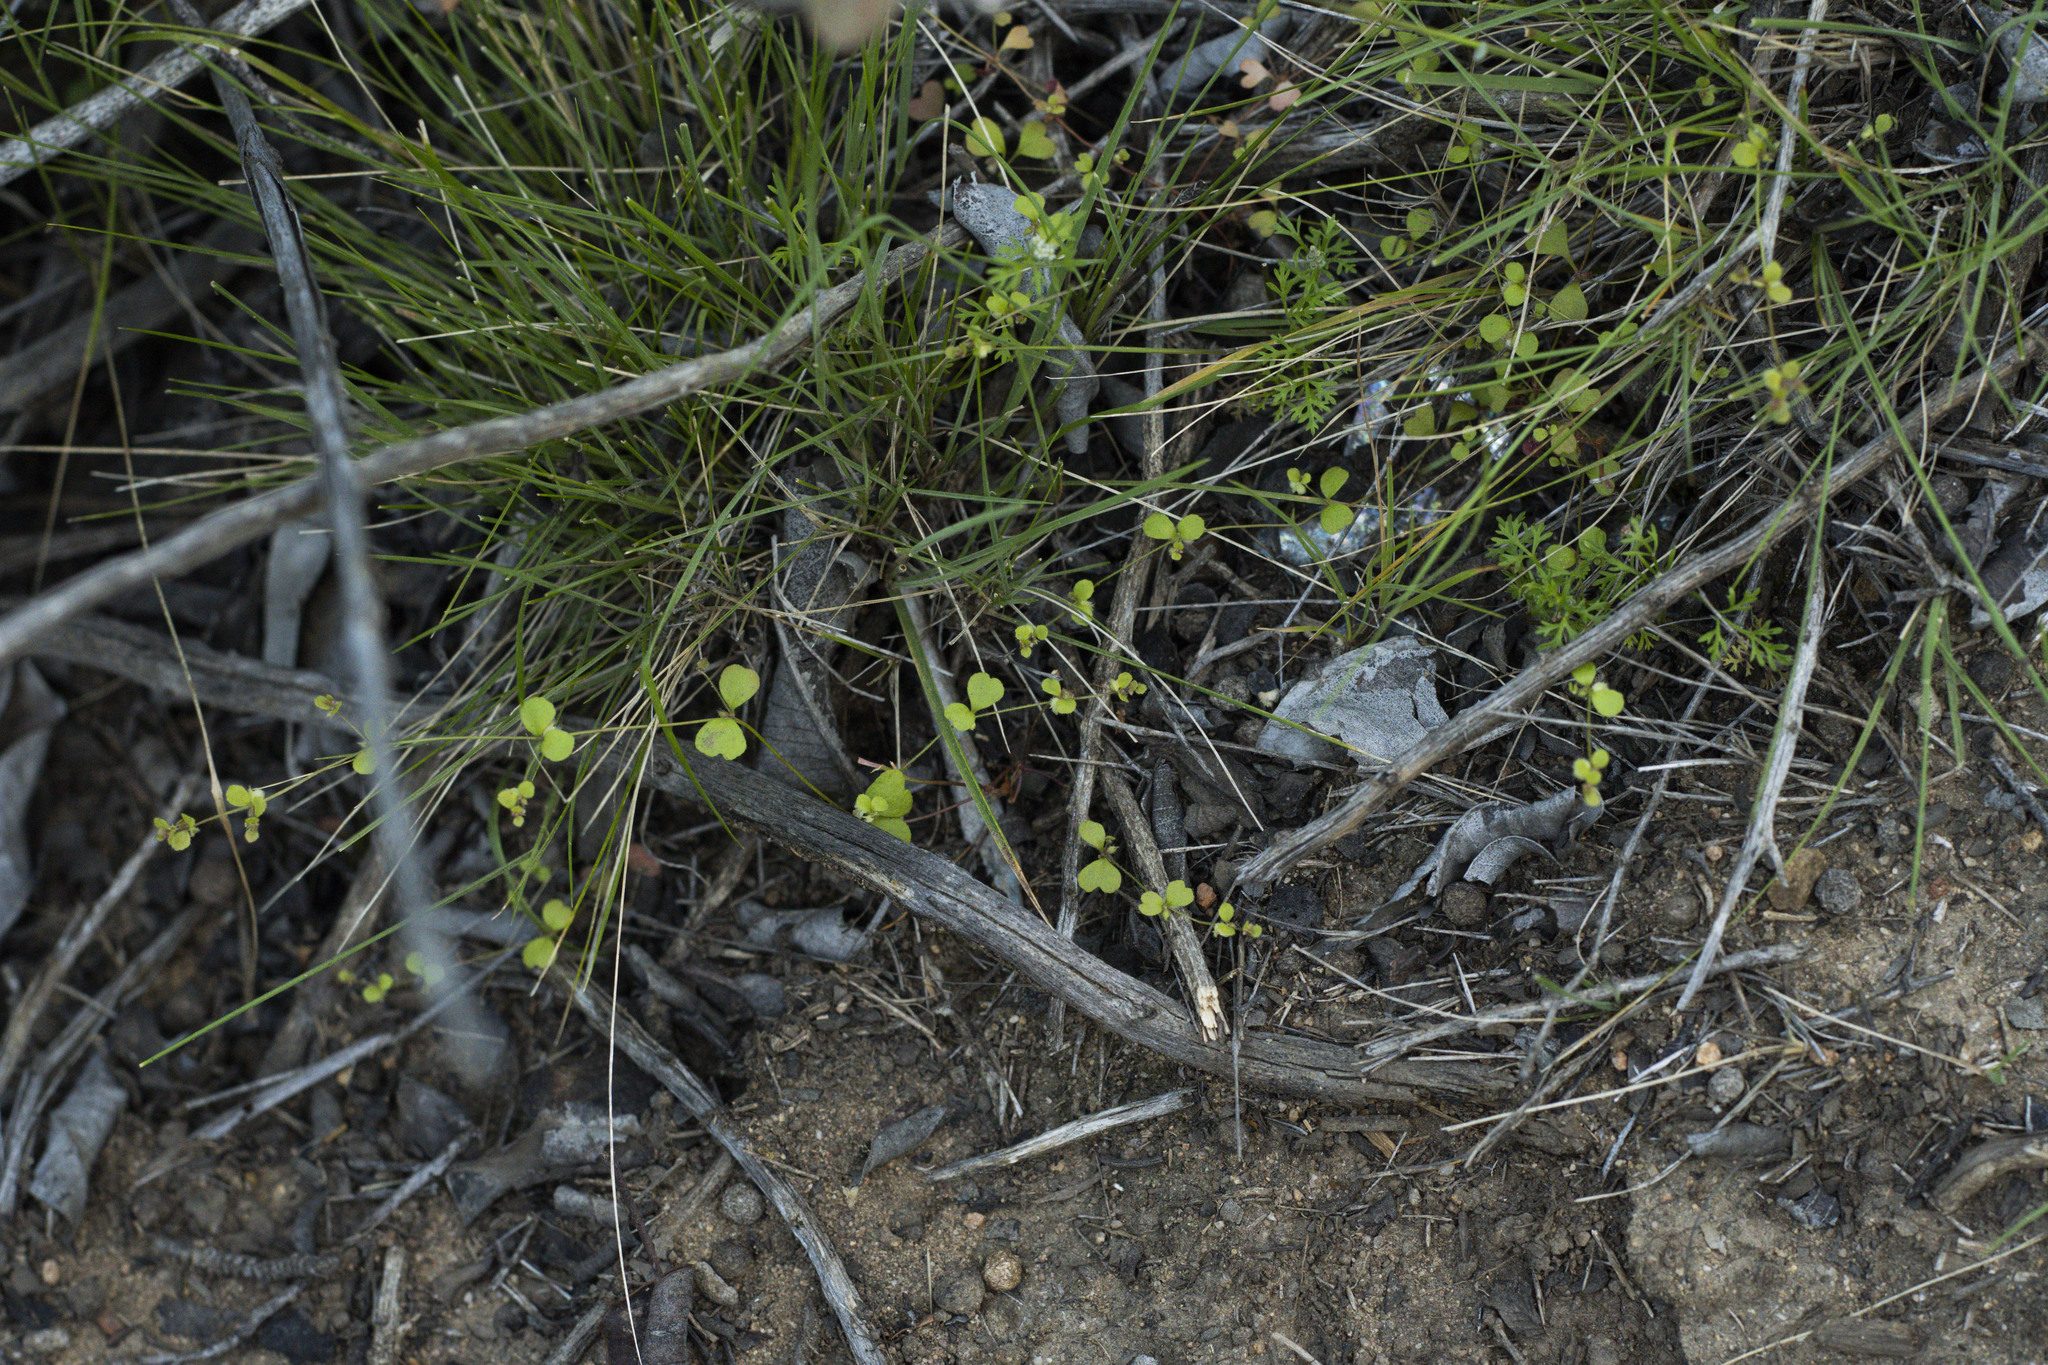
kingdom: Plantae
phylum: Tracheophyta
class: Magnoliopsida
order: Caryophyllales
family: Polygonaceae
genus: Pterostegia
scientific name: Pterostegia drymarioides
